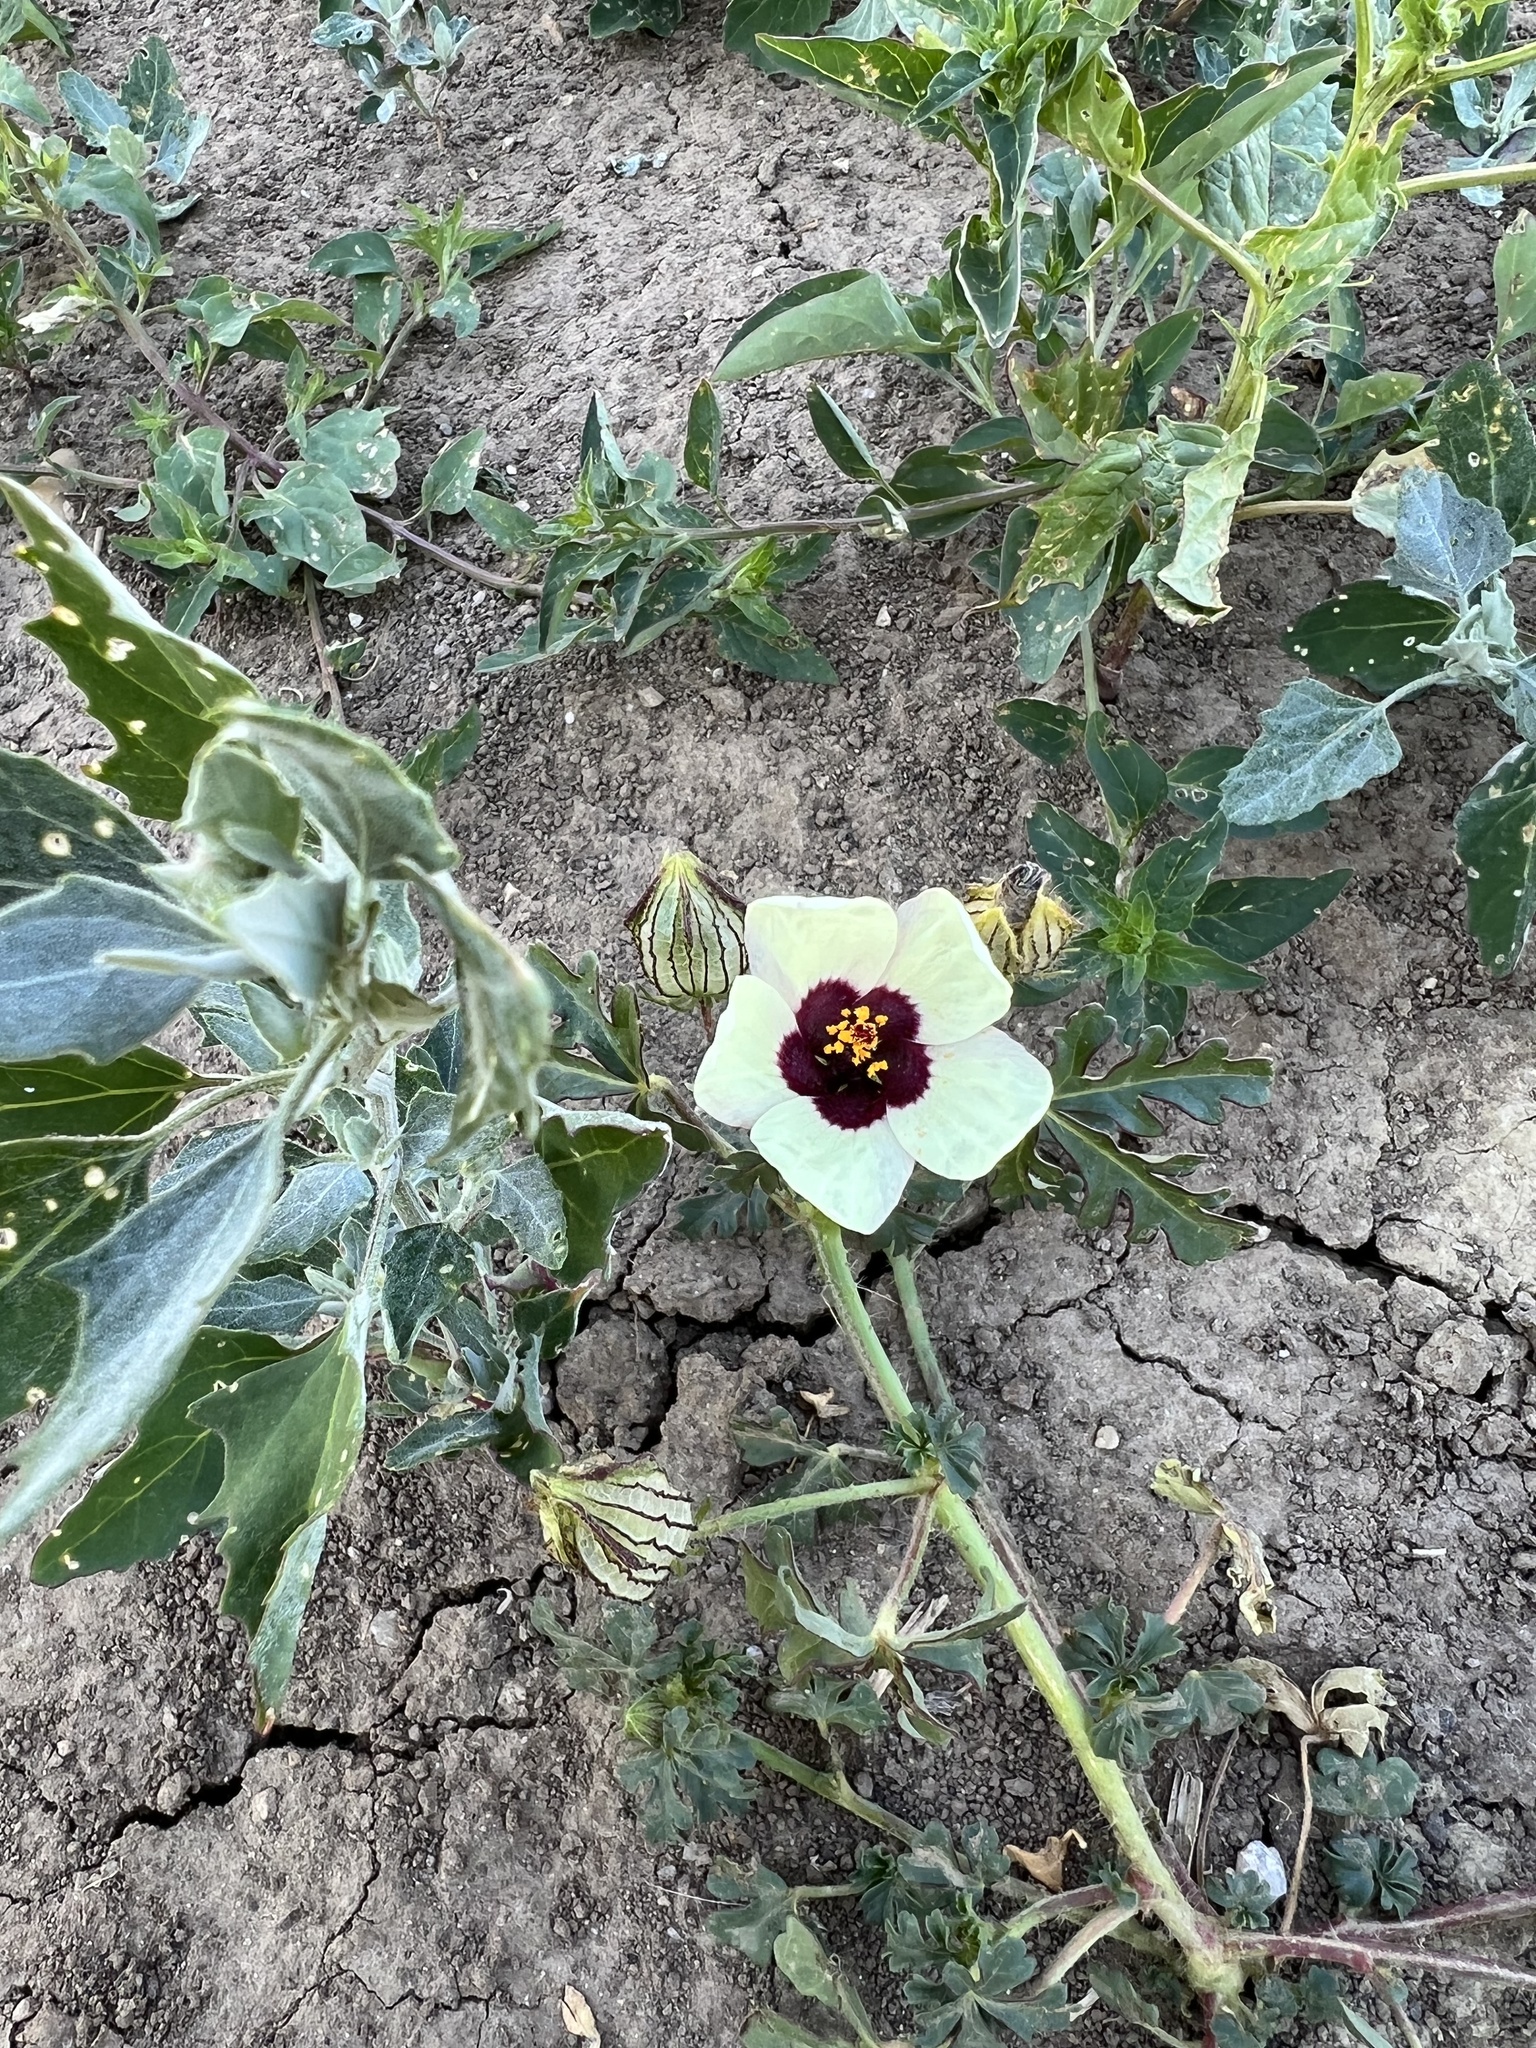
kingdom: Plantae
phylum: Tracheophyta
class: Magnoliopsida
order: Malvales
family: Malvaceae
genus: Hibiscus
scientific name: Hibiscus trionum
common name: Bladder ketmia
